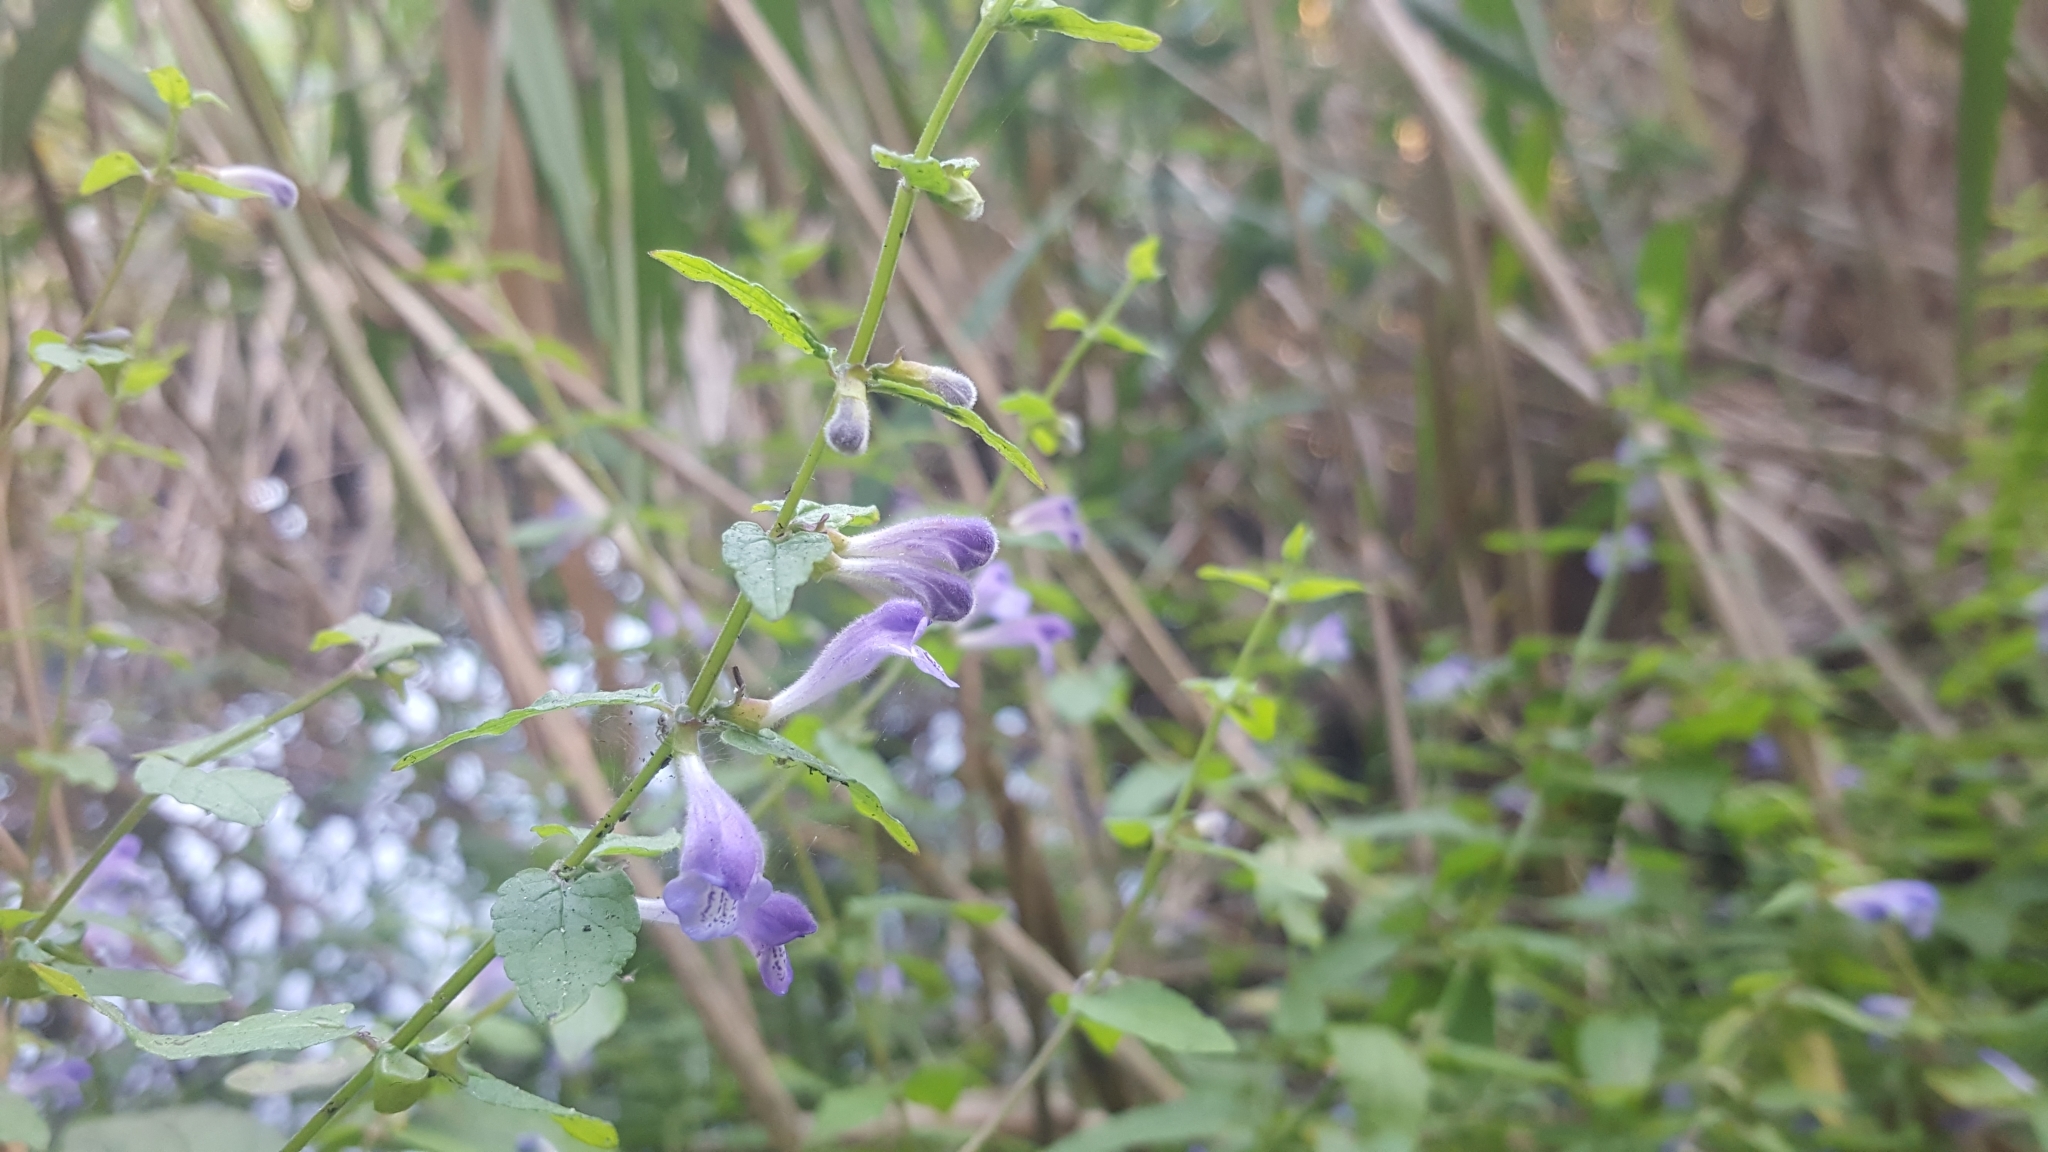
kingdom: Plantae
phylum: Tracheophyta
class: Magnoliopsida
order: Lamiales
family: Lamiaceae
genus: Scutellaria
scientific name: Scutellaria galericulata
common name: Skullcap
